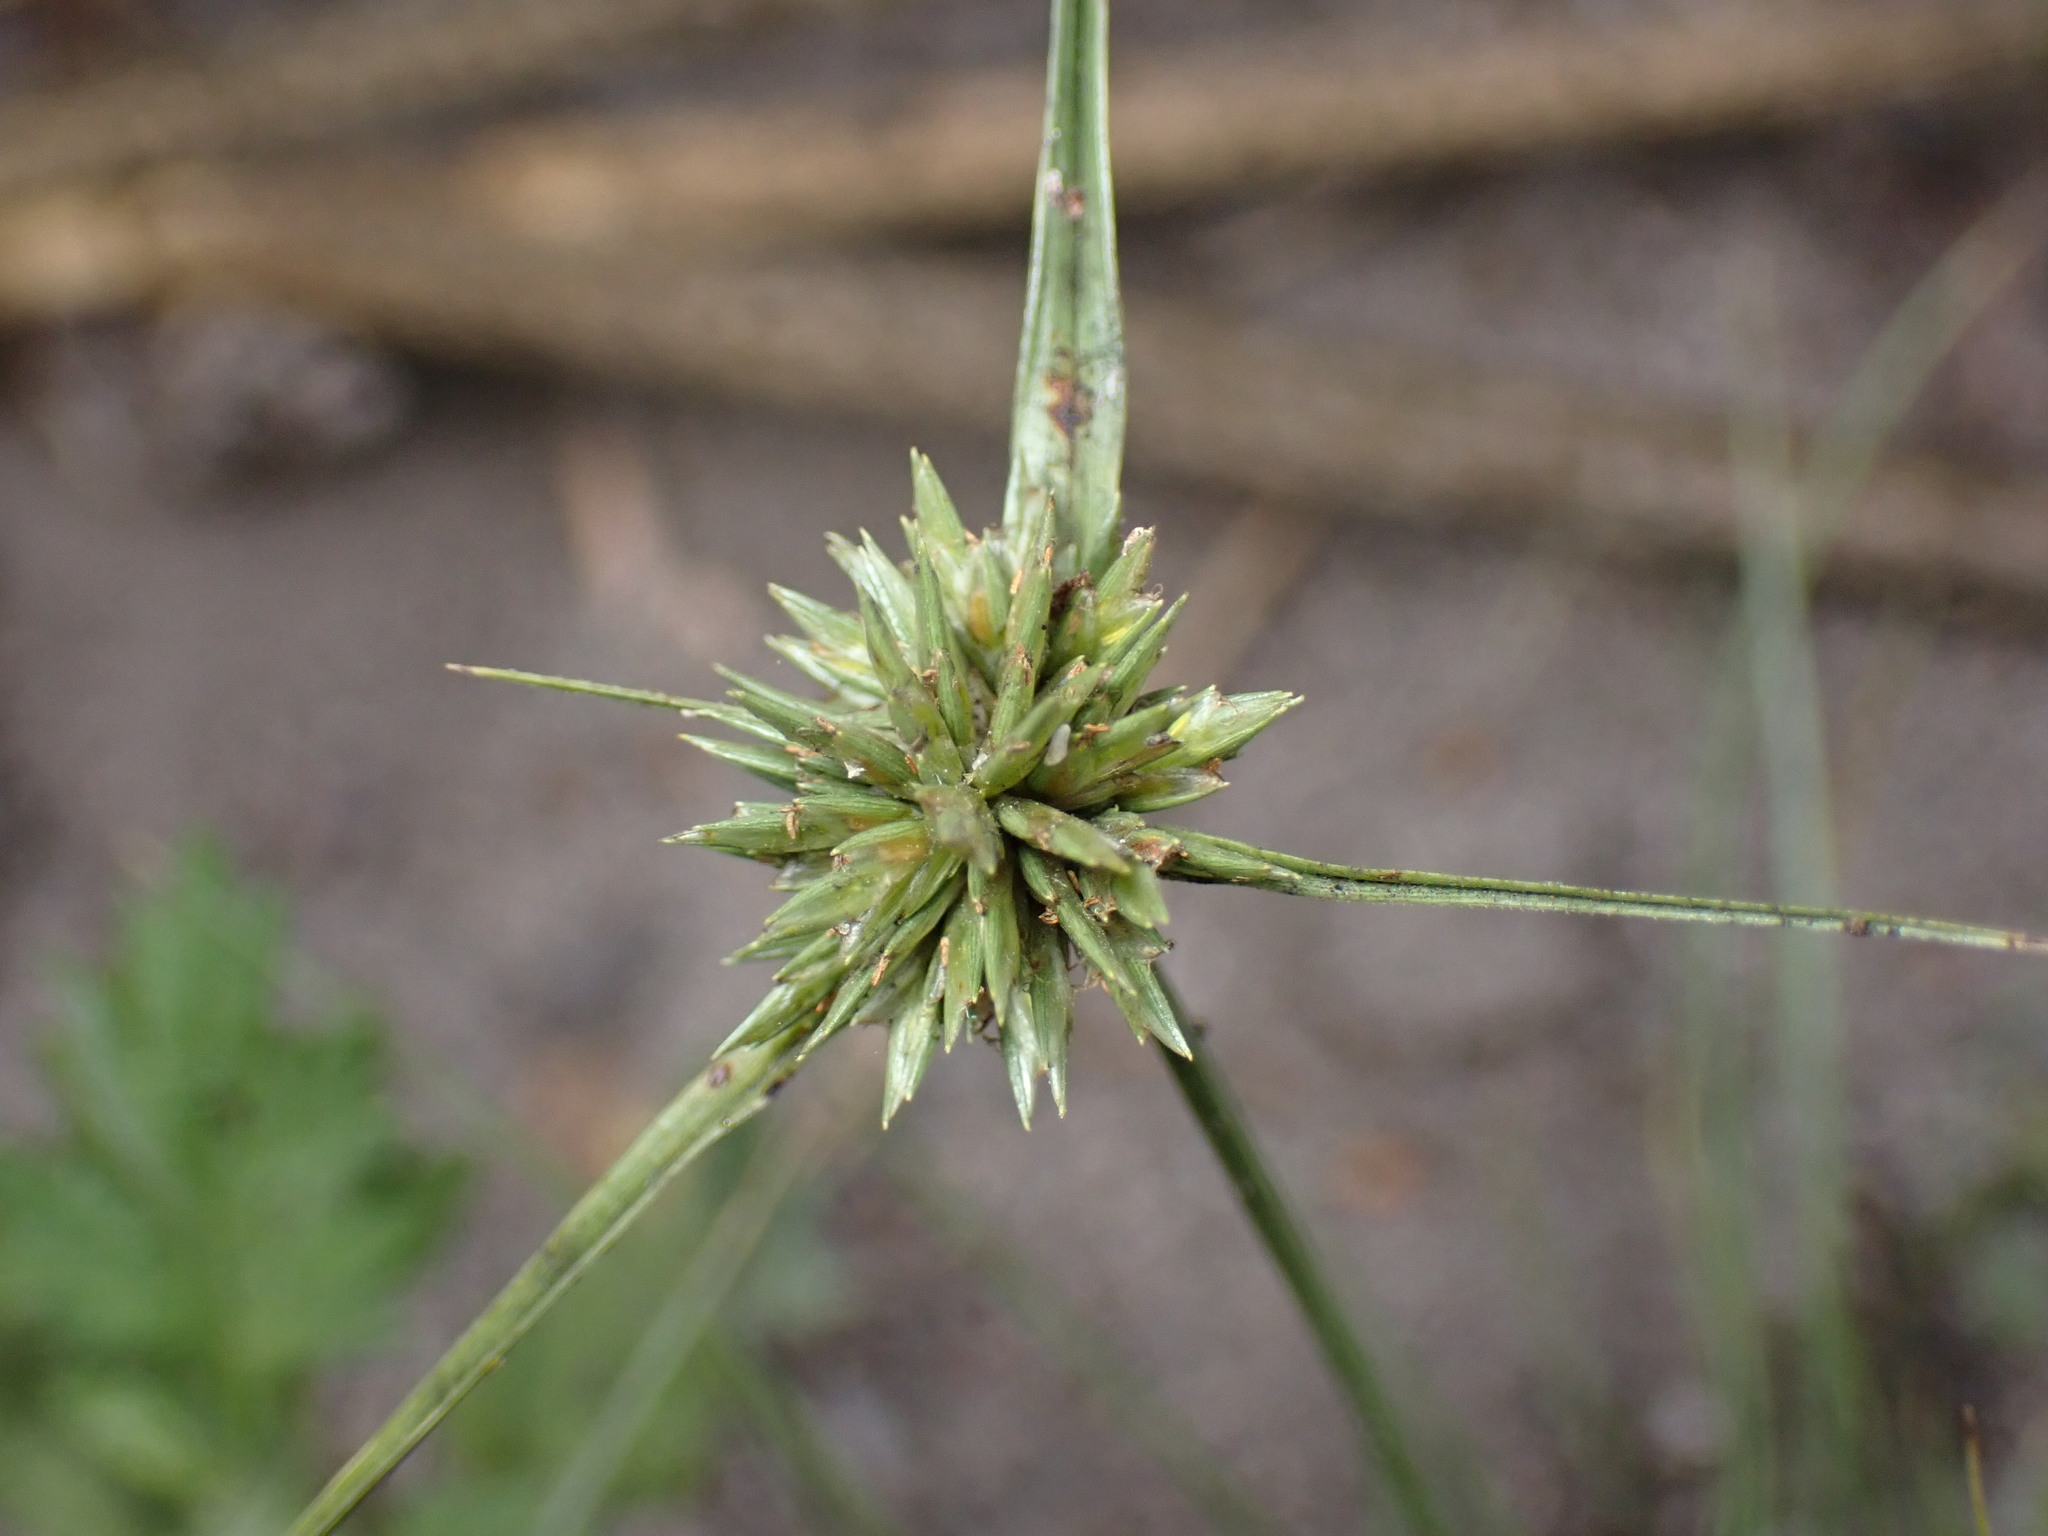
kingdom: Plantae
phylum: Tracheophyta
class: Liliopsida
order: Poales
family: Cyperaceae
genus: Cyperus
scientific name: Cyperus lupulinus
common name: Great plains flatsedge
